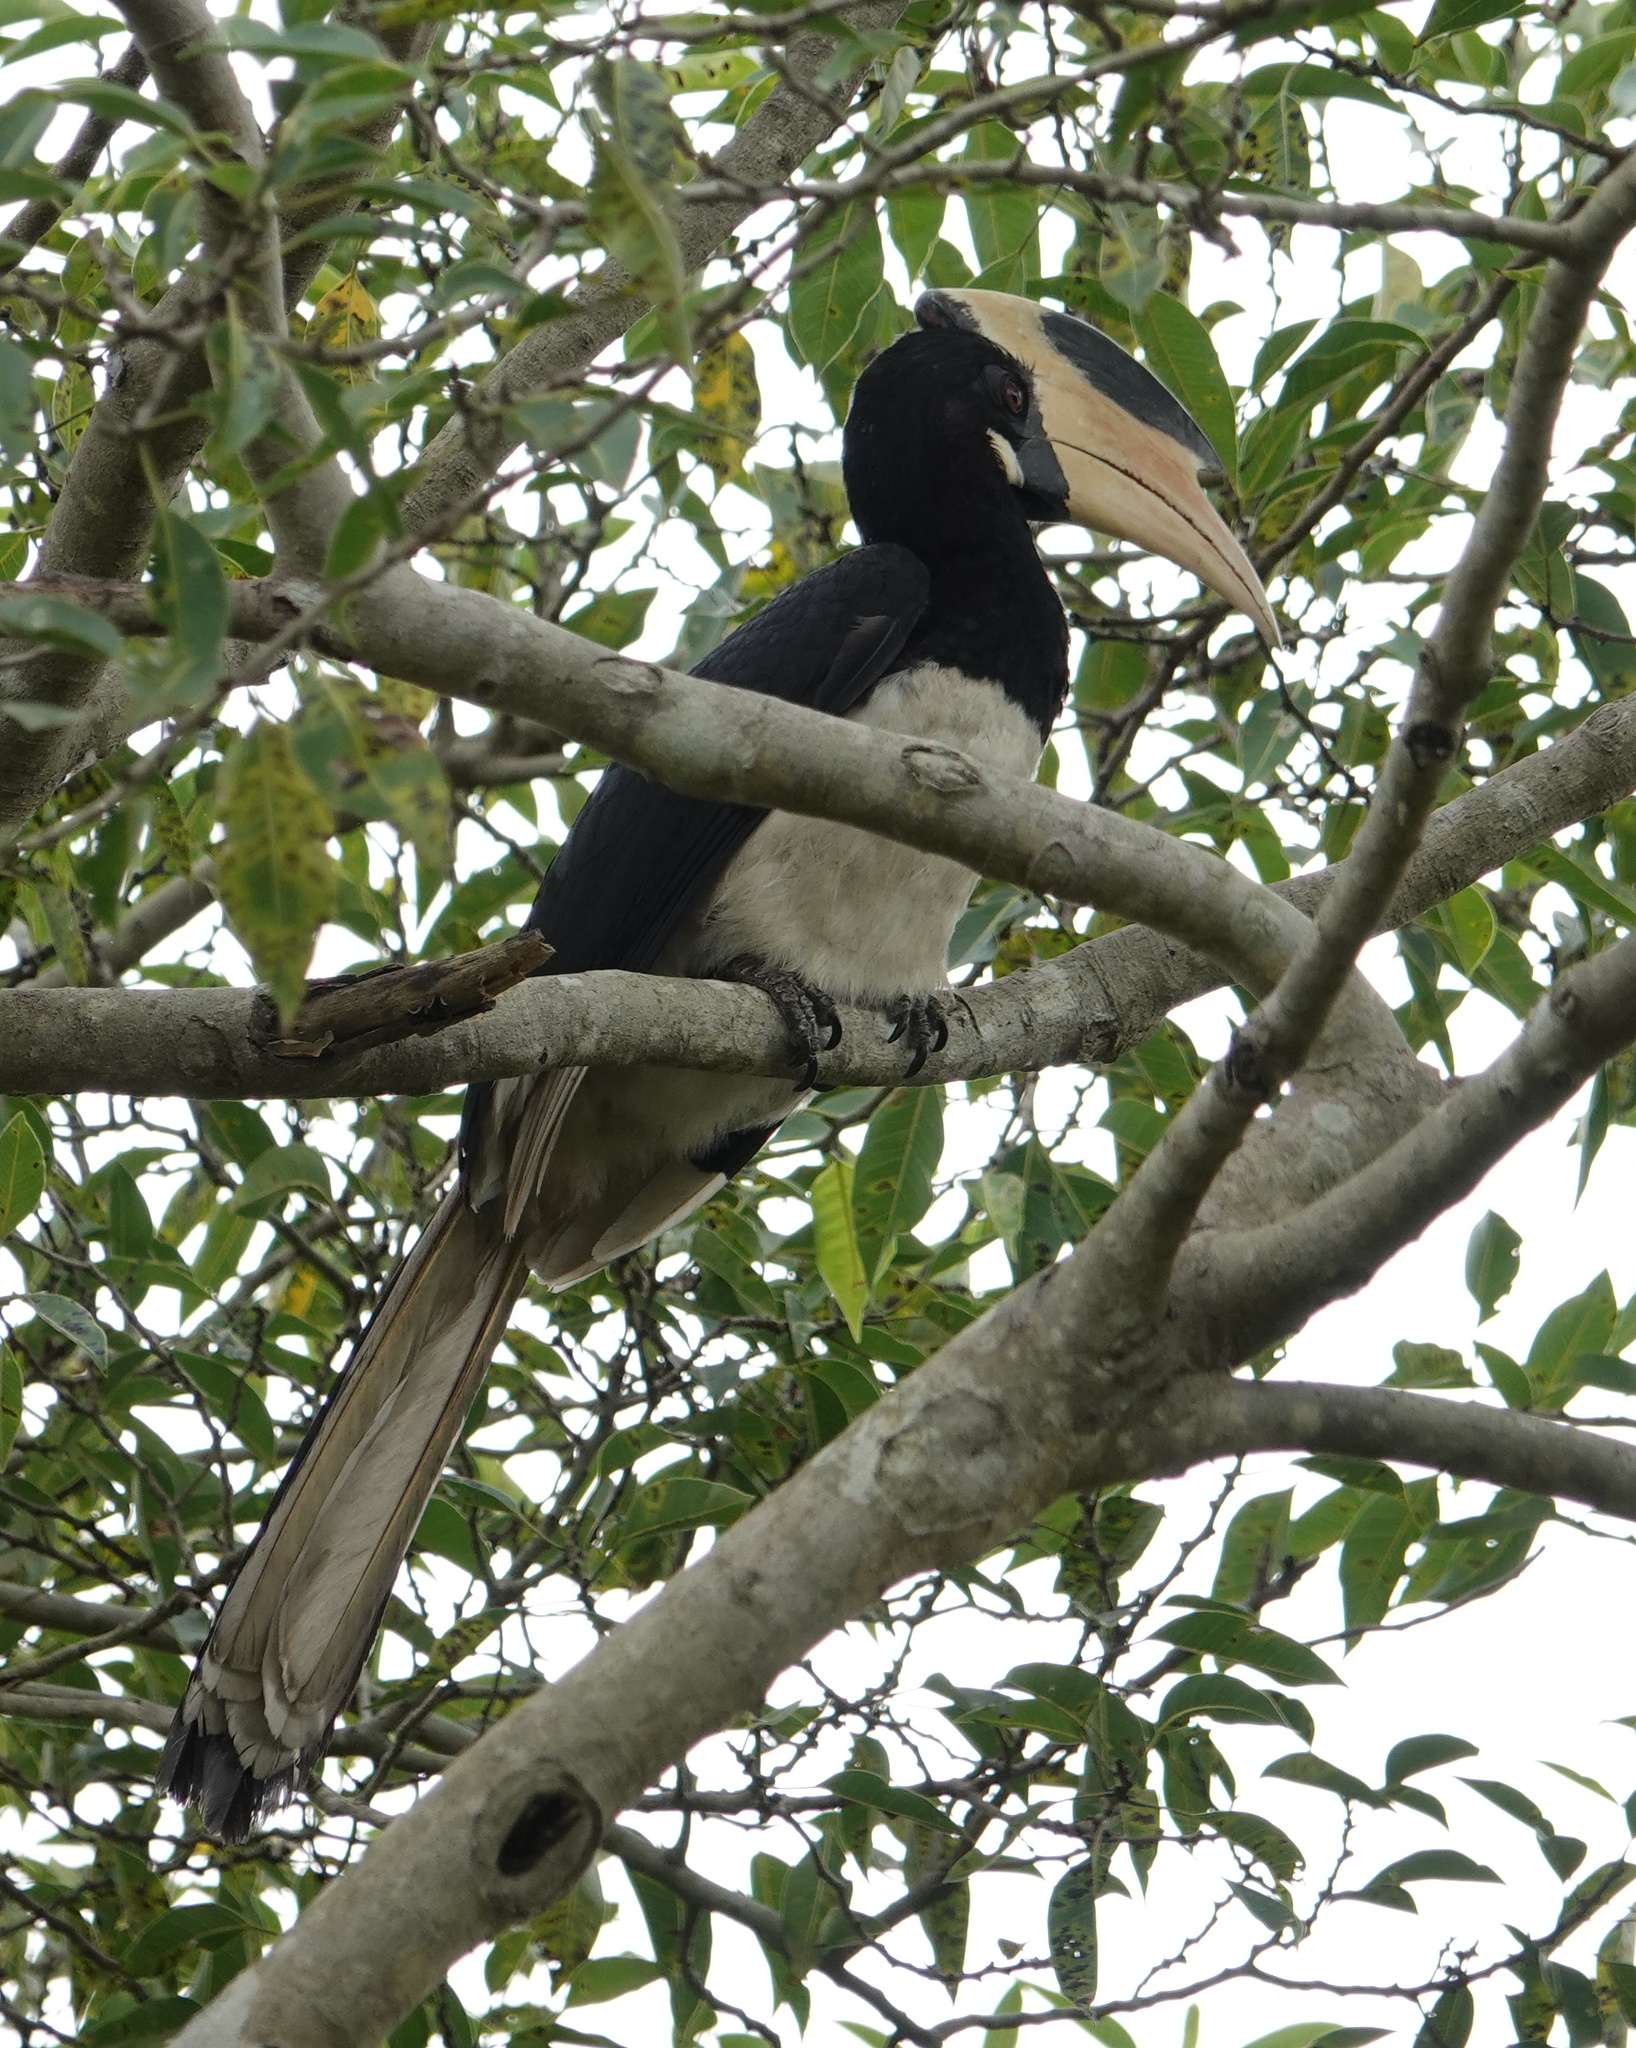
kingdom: Animalia
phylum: Chordata
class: Aves
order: Bucerotiformes
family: Bucerotidae
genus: Anthracoceros
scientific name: Anthracoceros coronatus
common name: Malabar pied hornbill
